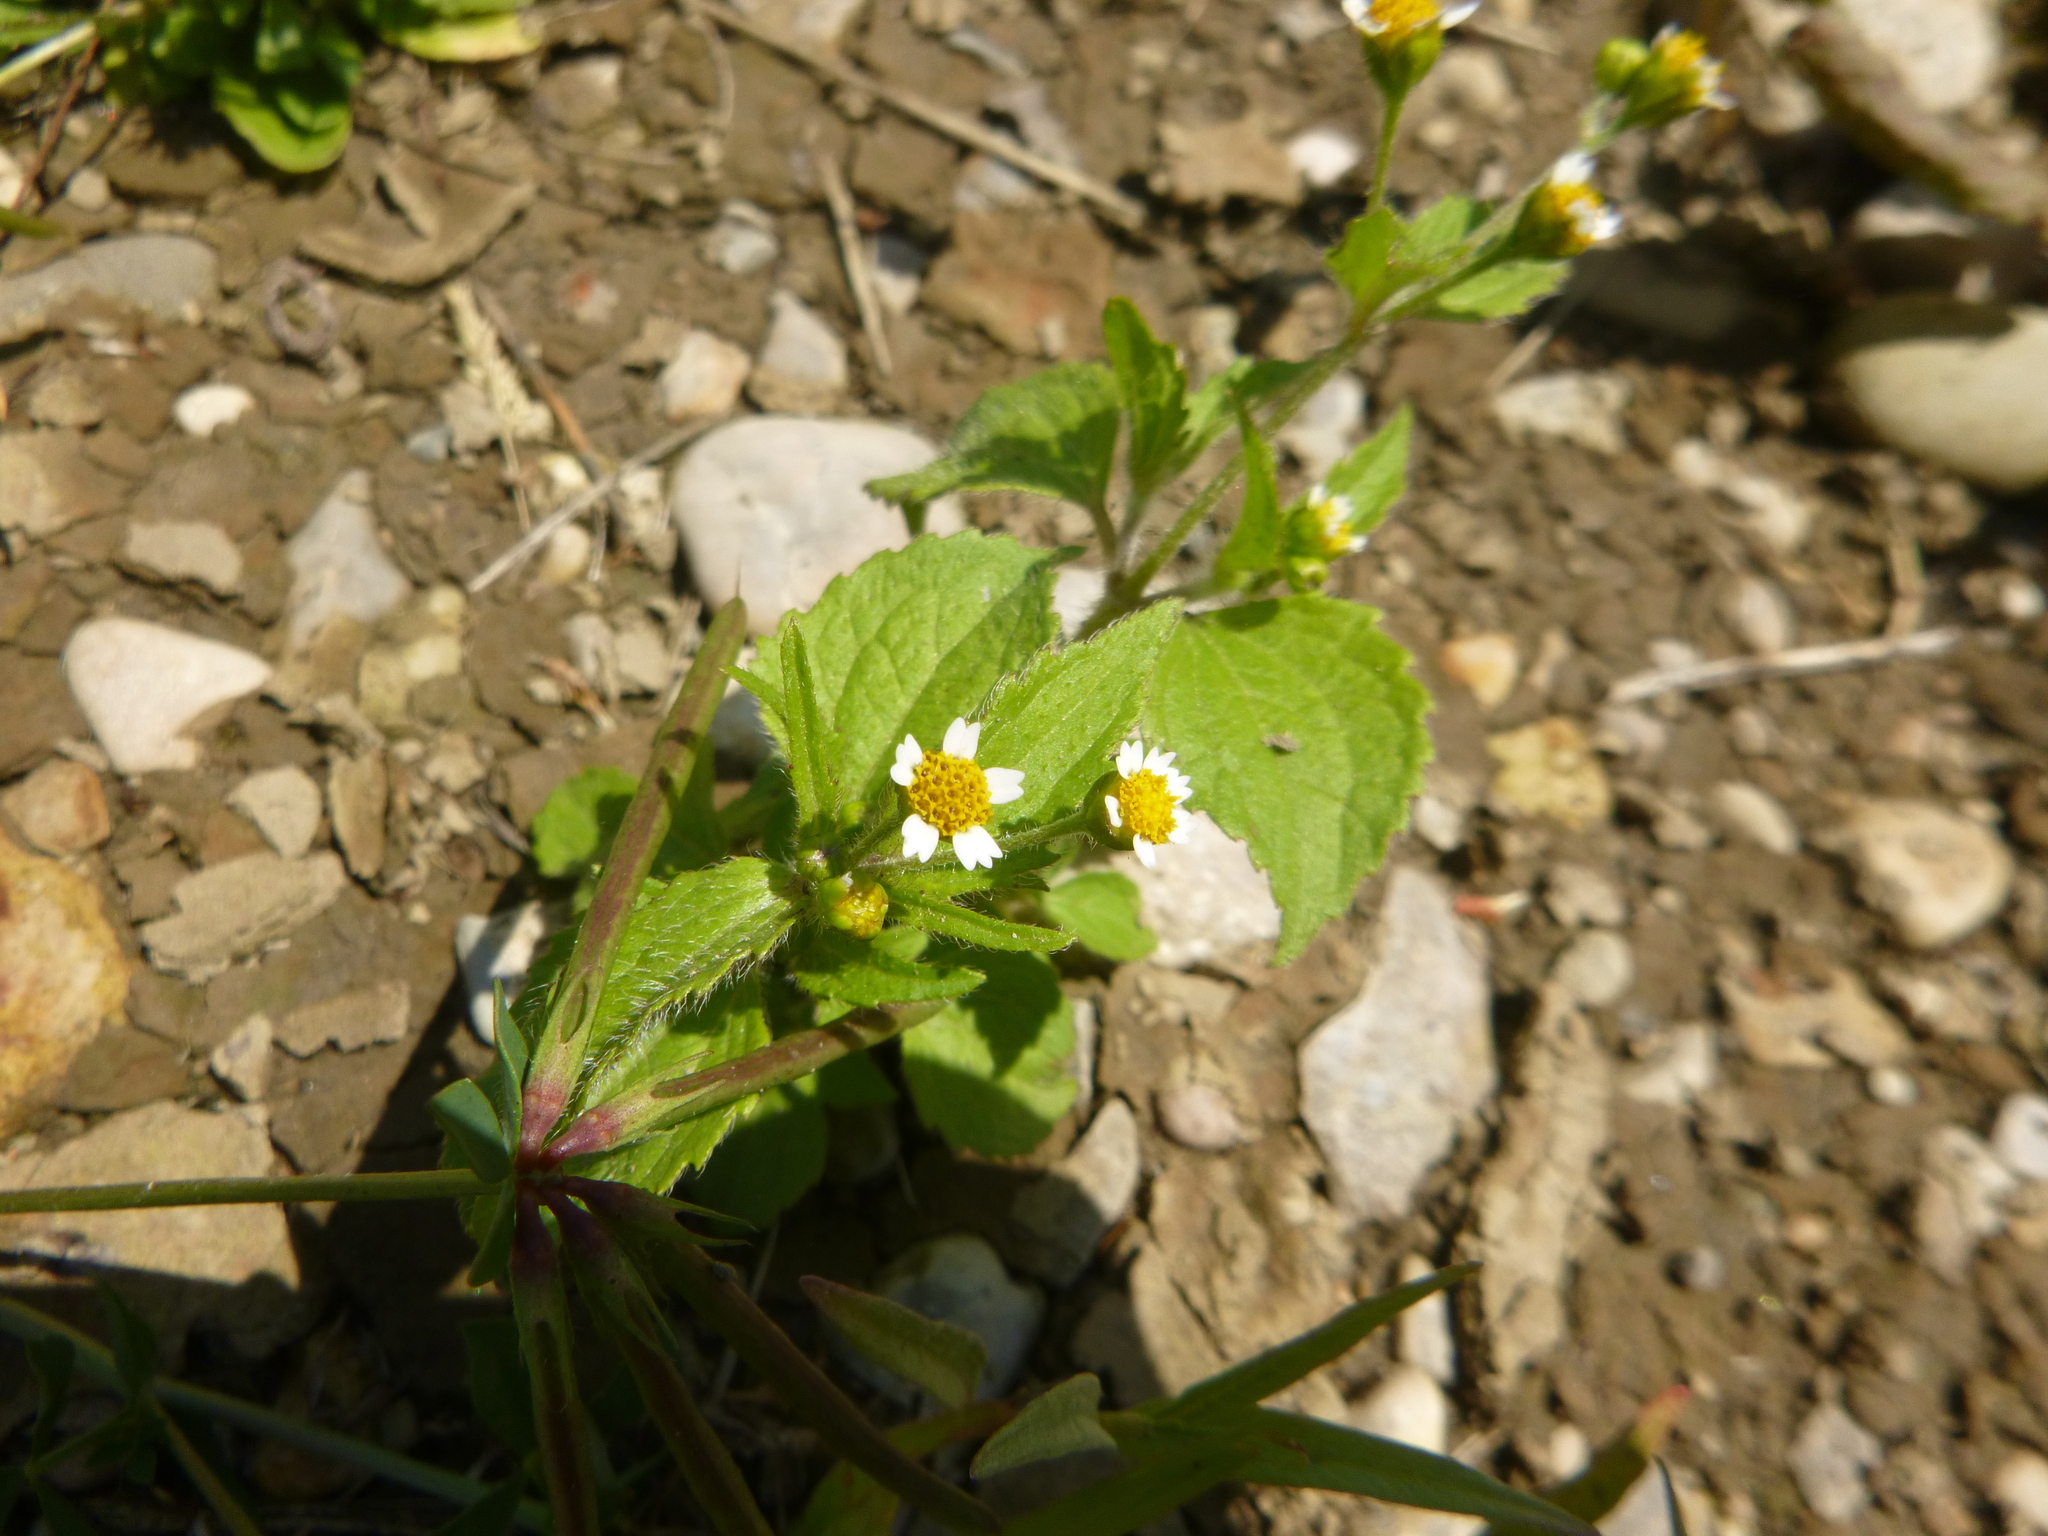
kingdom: Plantae
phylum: Tracheophyta
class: Magnoliopsida
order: Asterales
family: Asteraceae
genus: Galinsoga
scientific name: Galinsoga quadriradiata
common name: Shaggy soldier
